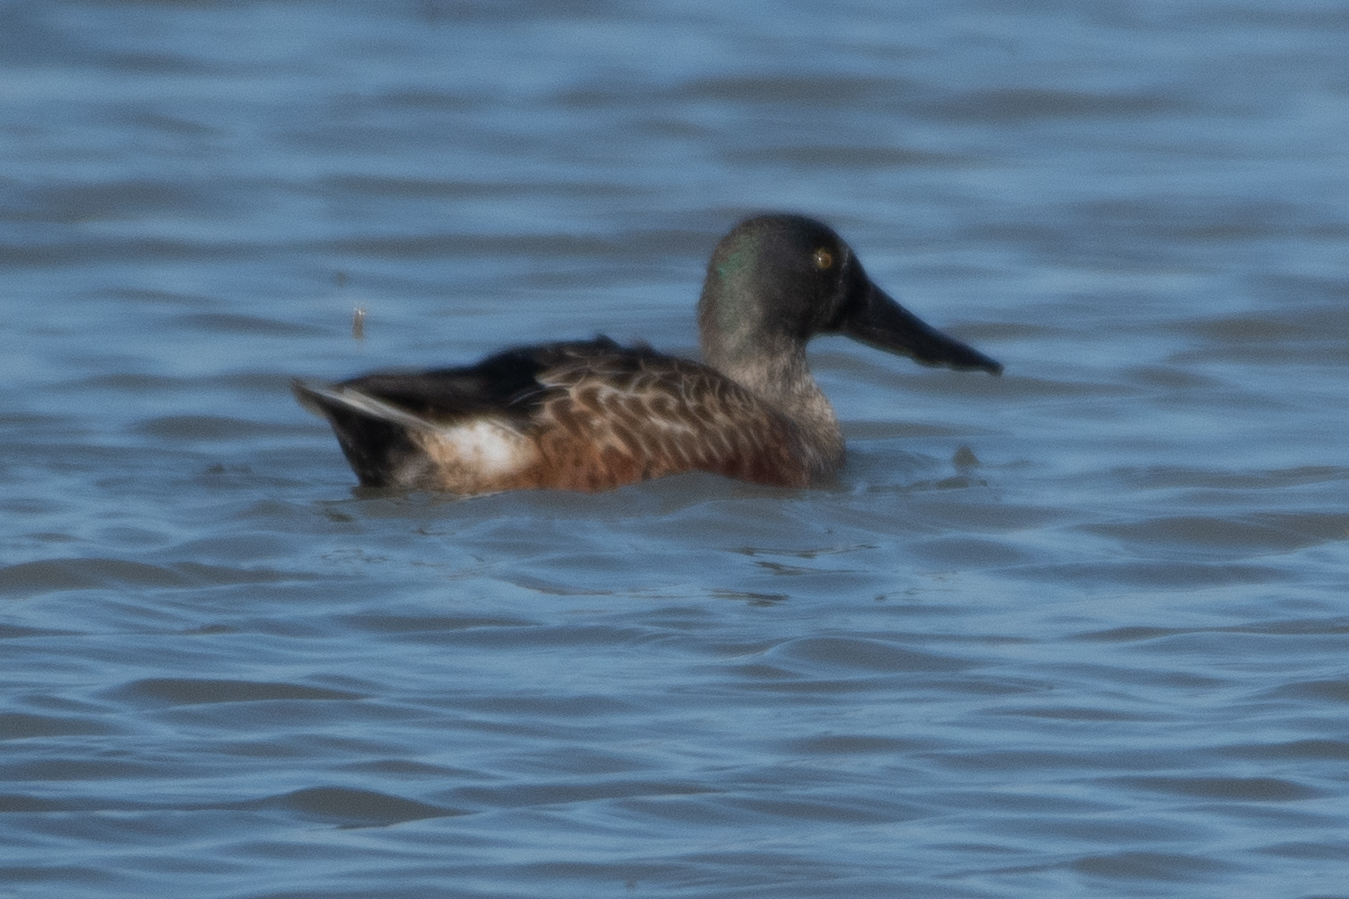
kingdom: Animalia
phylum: Chordata
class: Aves
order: Anseriformes
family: Anatidae
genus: Spatula
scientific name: Spatula clypeata
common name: Northern shoveler
